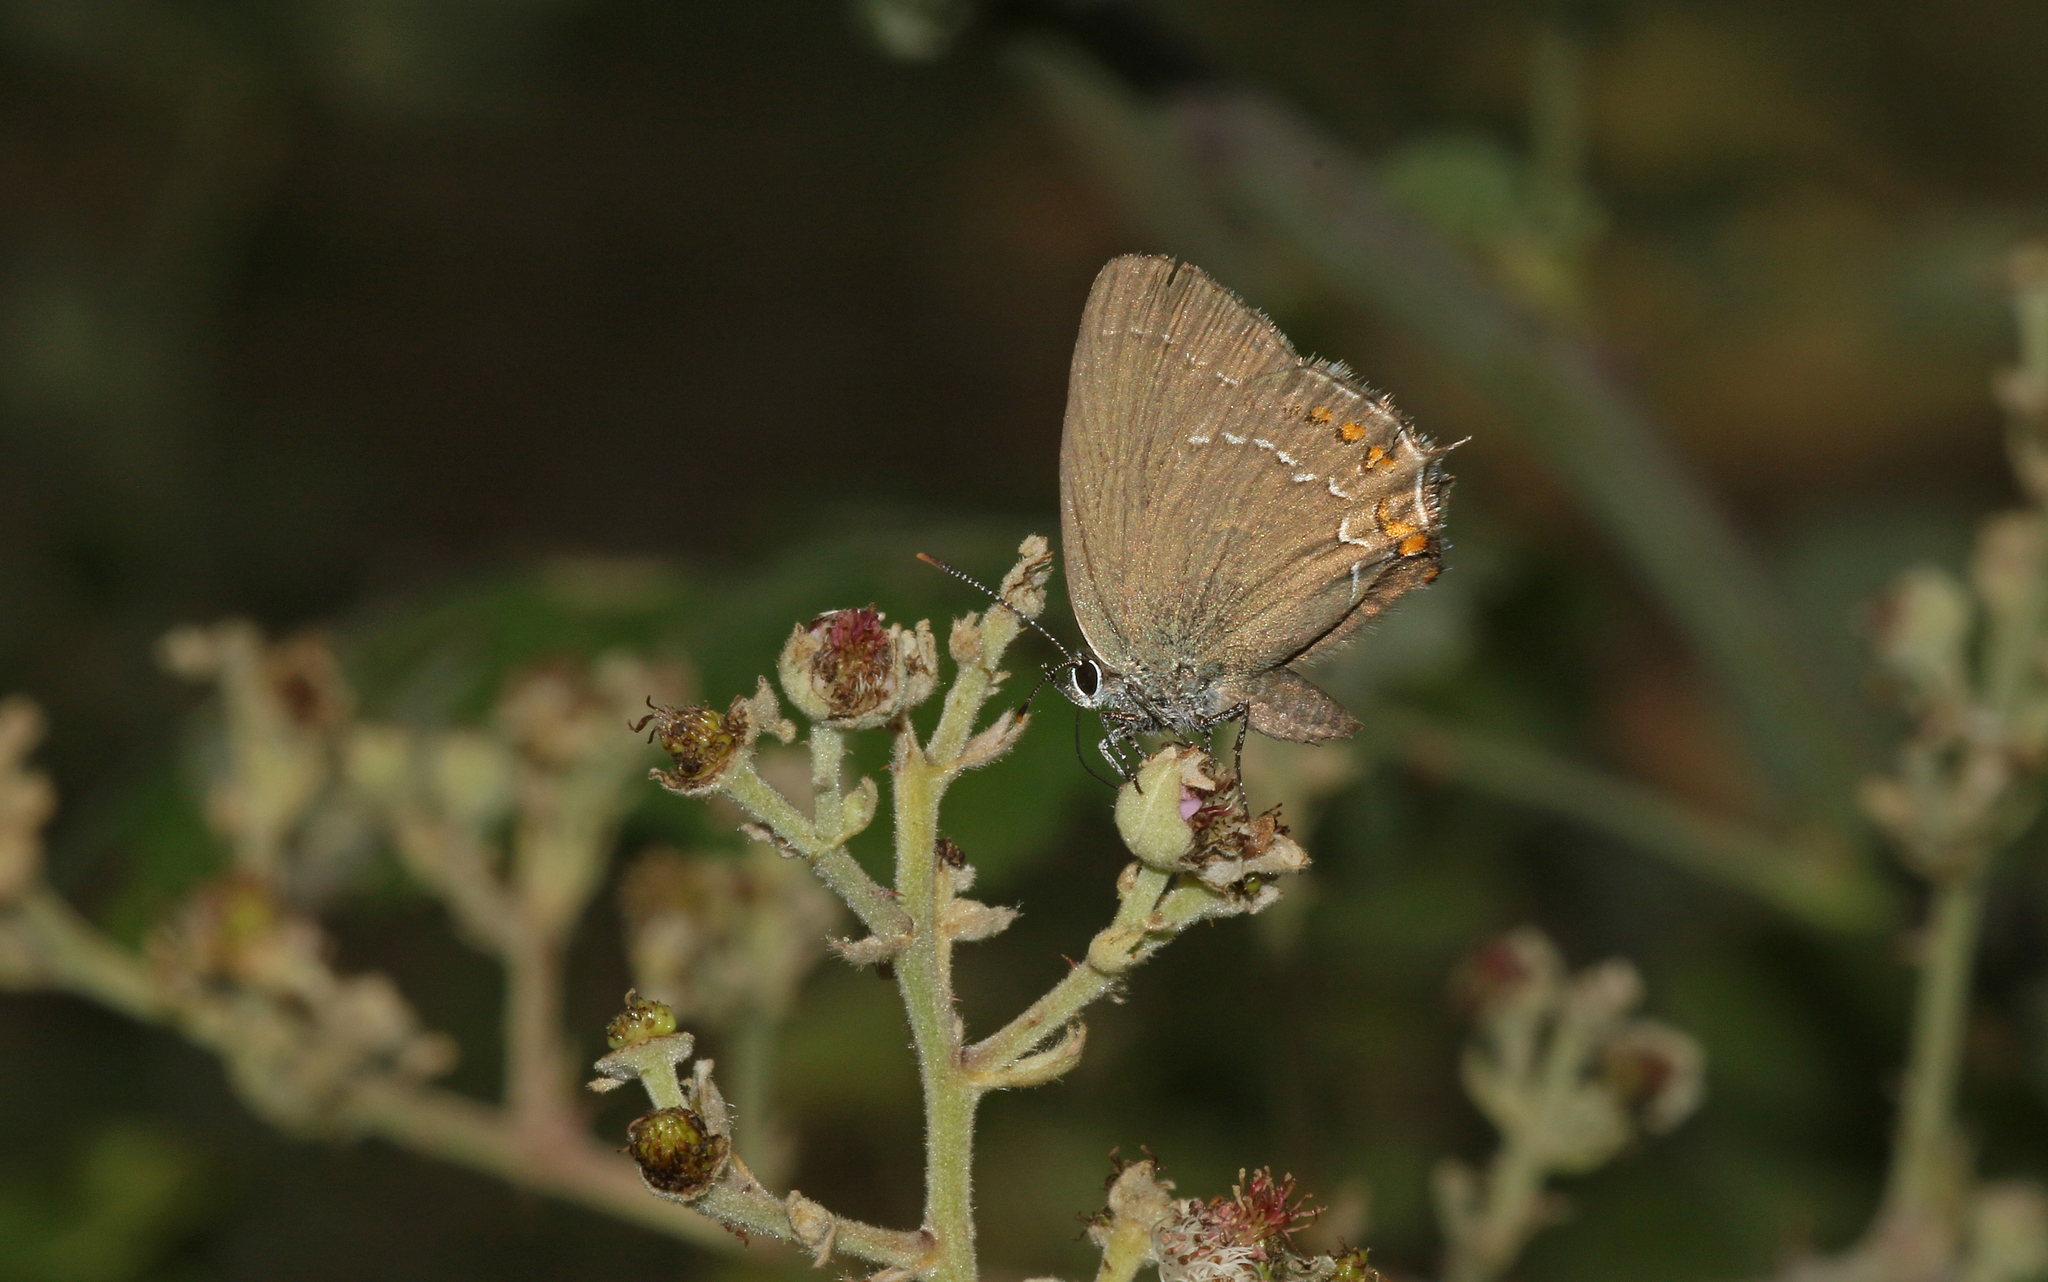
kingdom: Animalia
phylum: Arthropoda
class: Insecta
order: Lepidoptera
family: Lycaenidae
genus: Nordmannia
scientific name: Nordmannia ilicis
